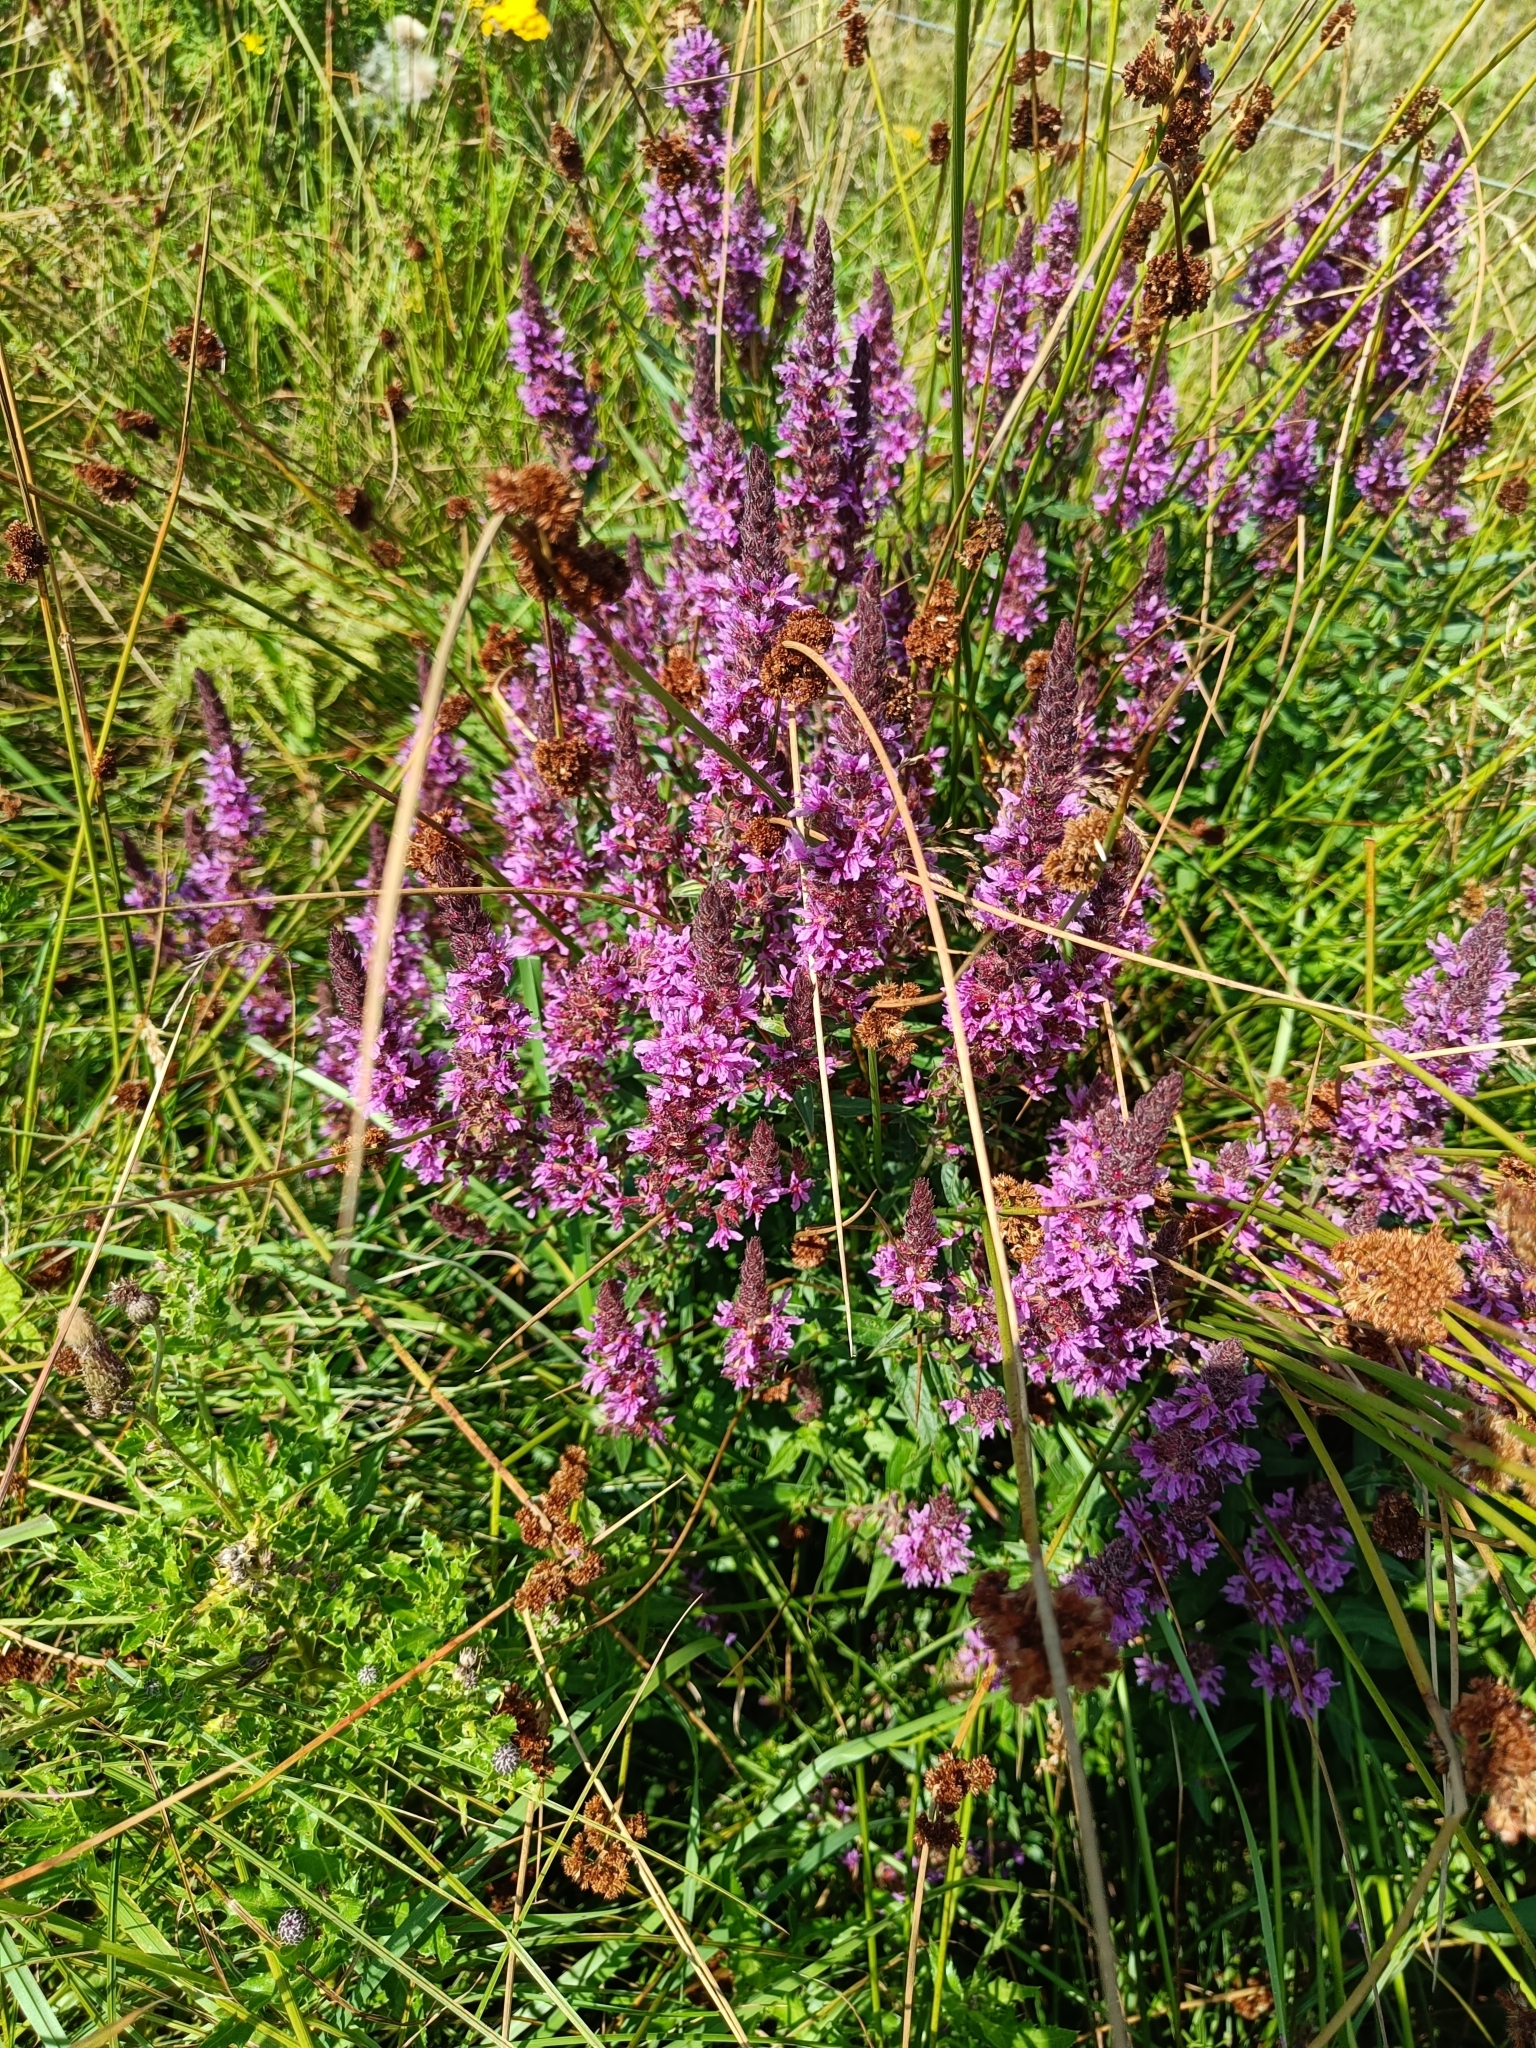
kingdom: Plantae
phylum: Tracheophyta
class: Magnoliopsida
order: Myrtales
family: Lythraceae
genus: Lythrum
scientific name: Lythrum salicaria
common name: Purple loosestrife
